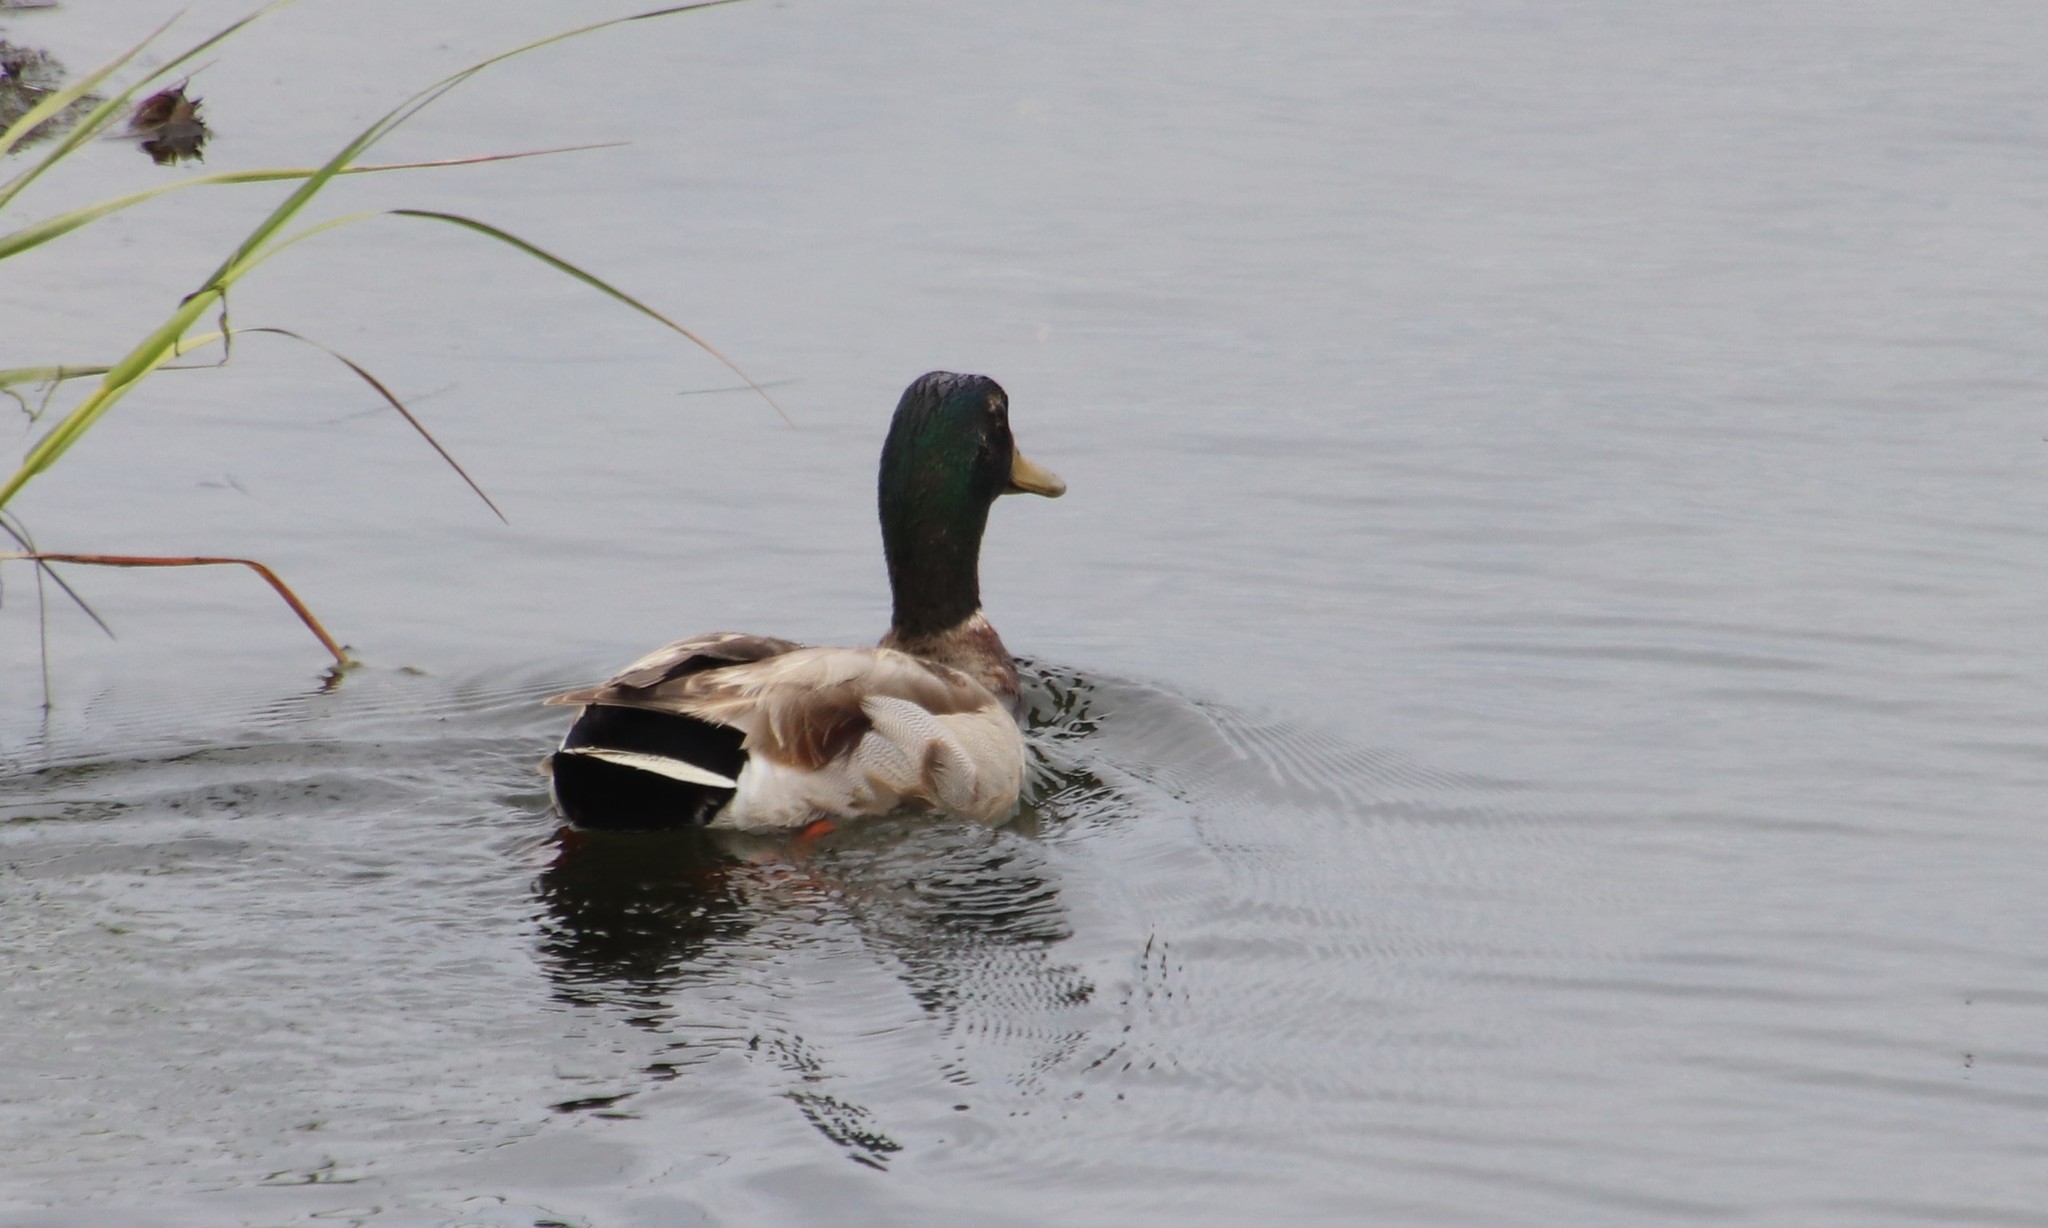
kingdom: Animalia
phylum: Chordata
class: Aves
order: Anseriformes
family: Anatidae
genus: Anas
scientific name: Anas platyrhynchos
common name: Mallard
